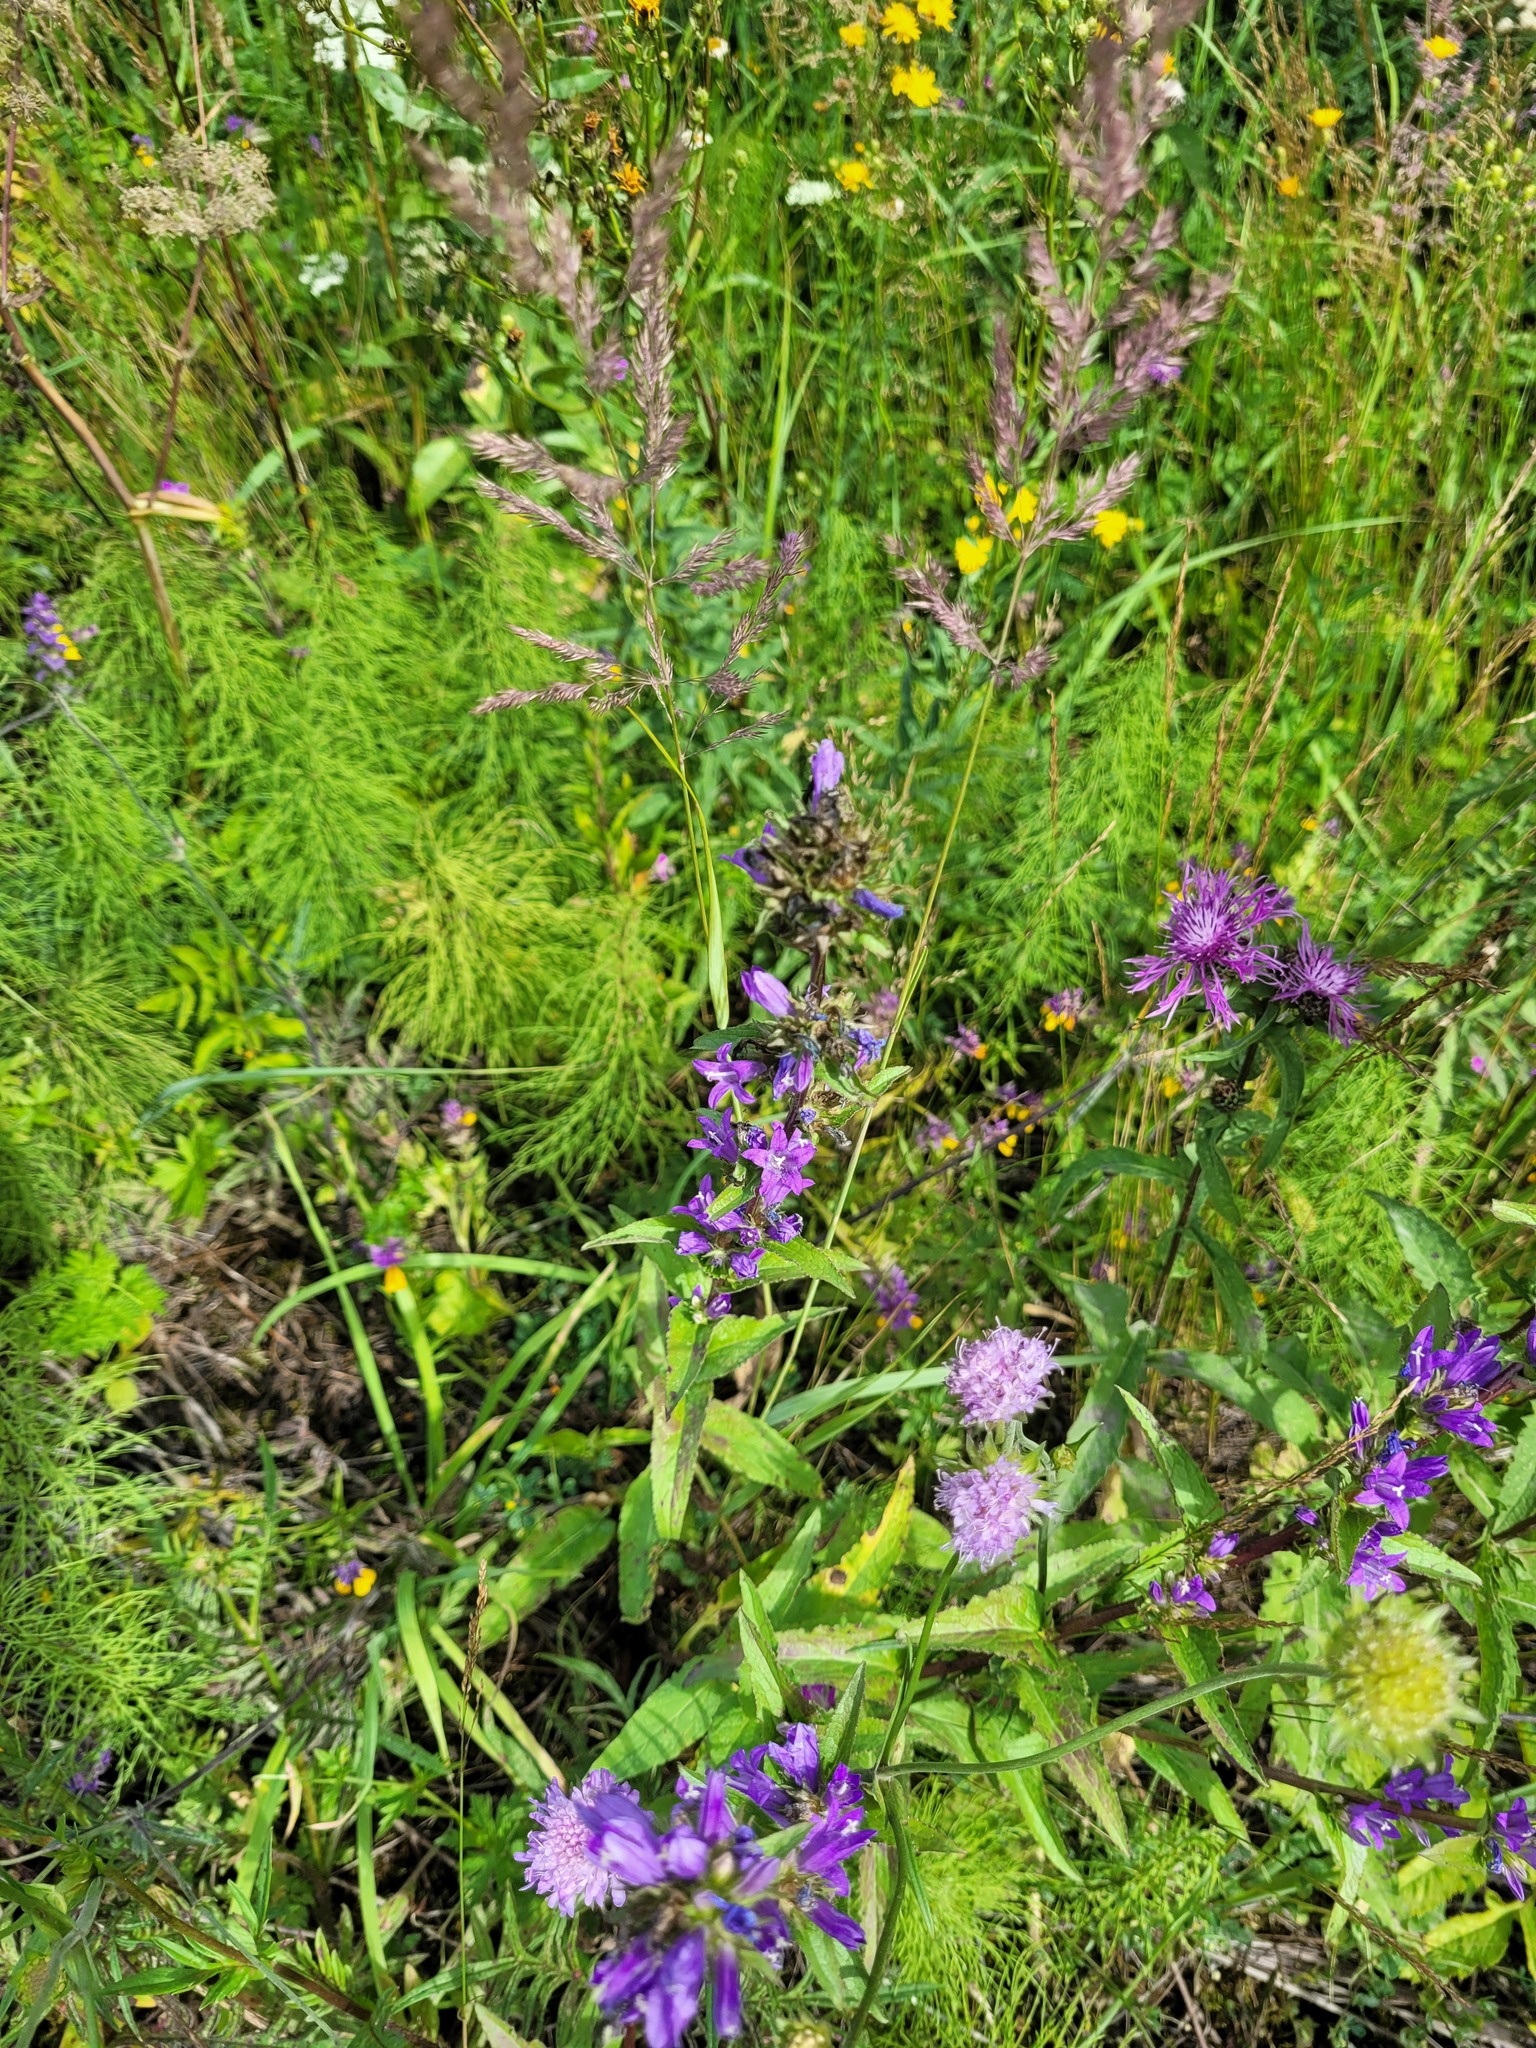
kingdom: Plantae
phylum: Tracheophyta
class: Magnoliopsida
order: Asterales
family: Campanulaceae
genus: Campanula
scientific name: Campanula glomerata
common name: Clustered bellflower
